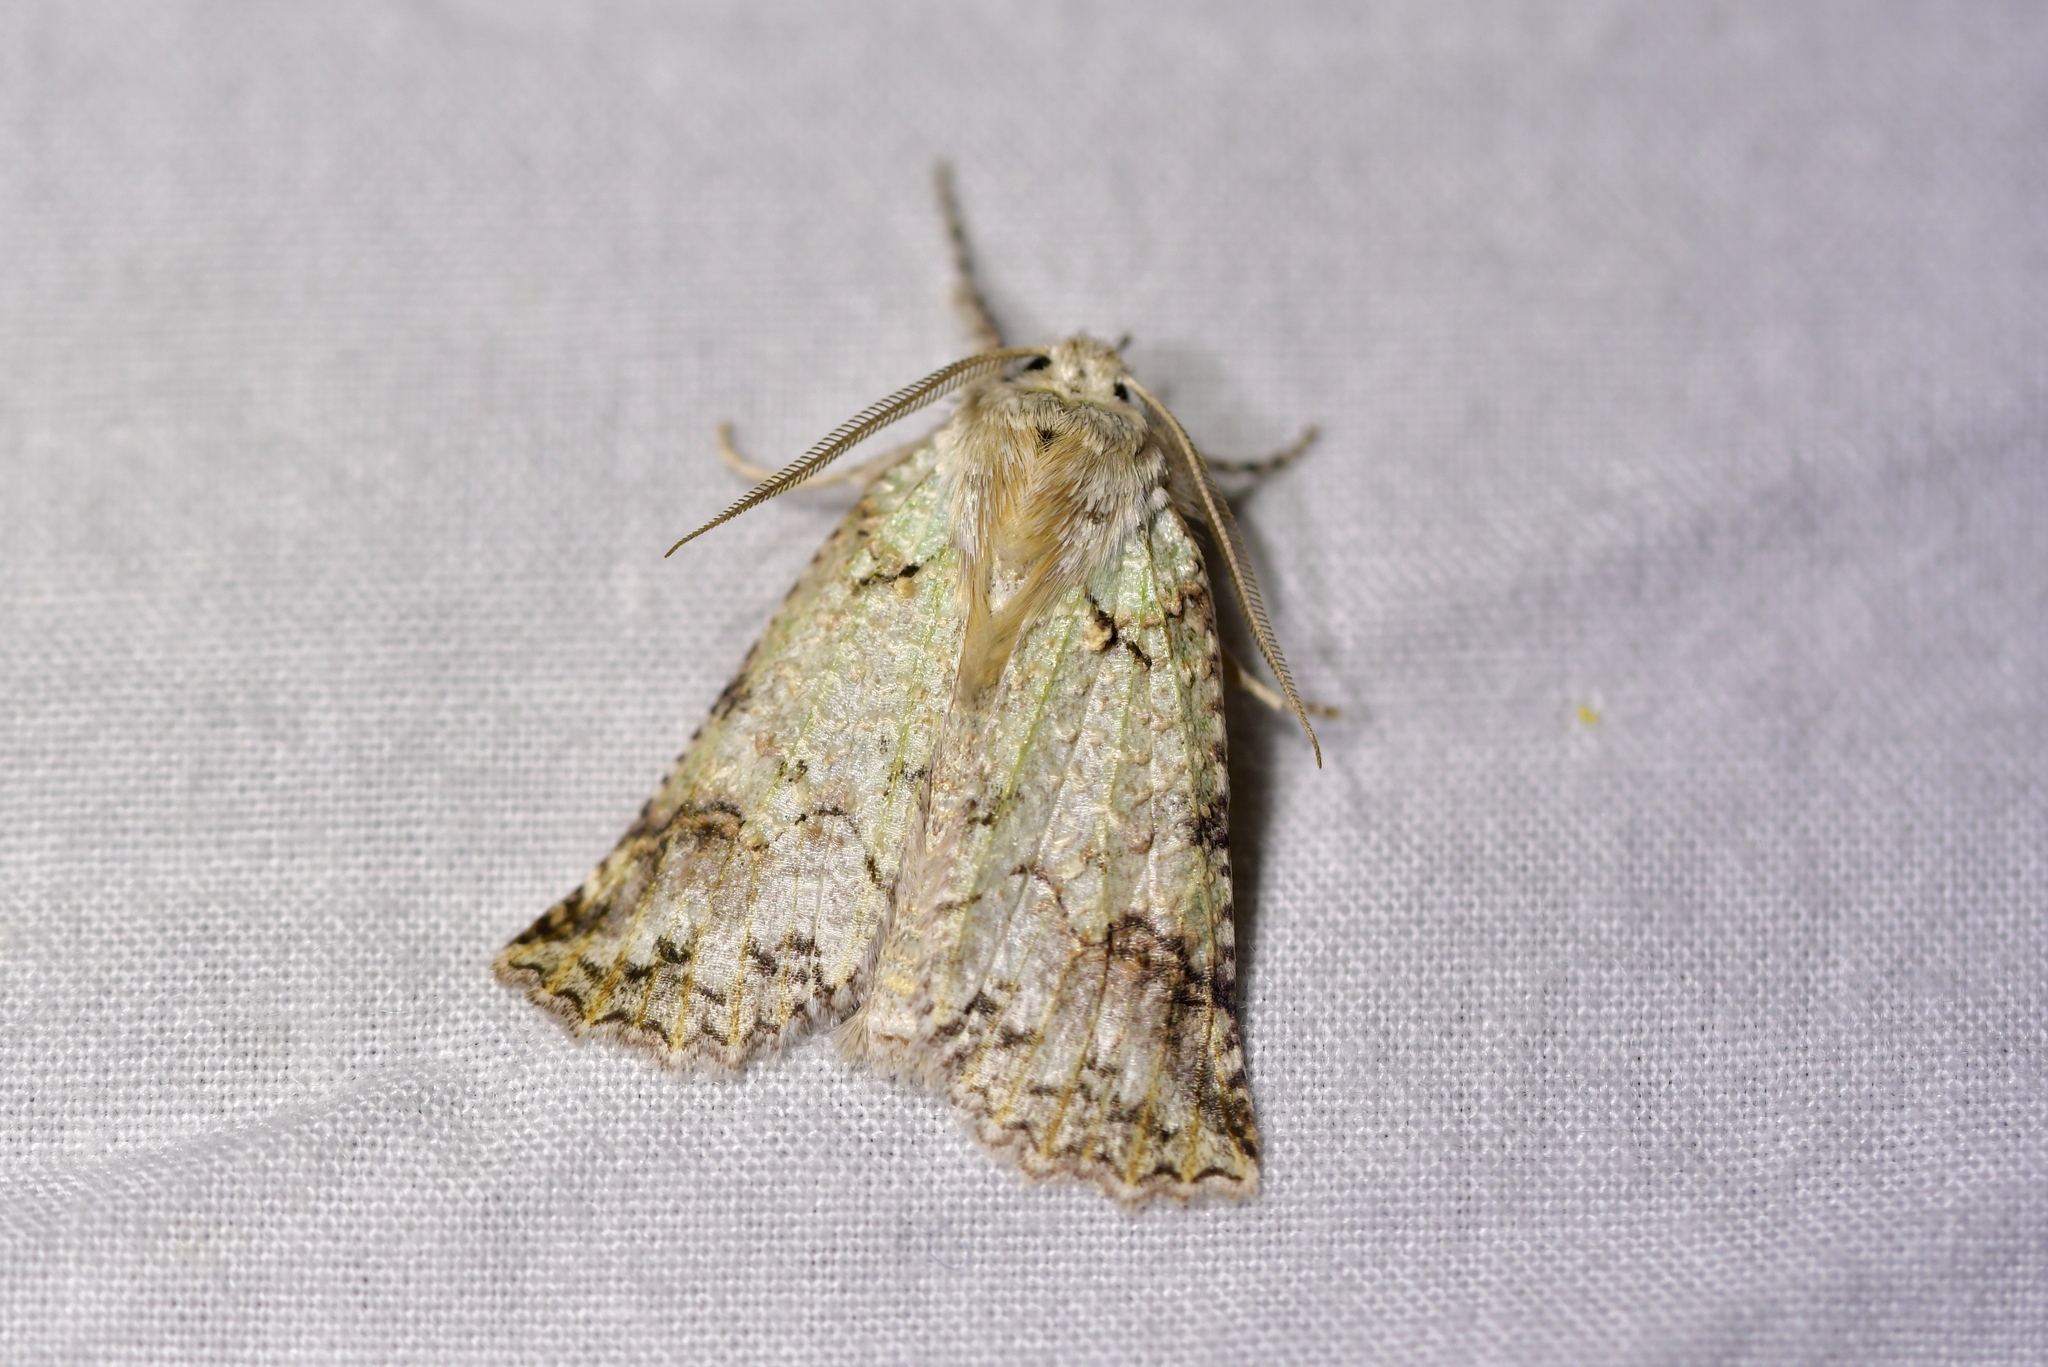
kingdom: Animalia
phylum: Arthropoda
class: Insecta
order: Lepidoptera
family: Geometridae
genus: Declana
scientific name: Declana floccosa
